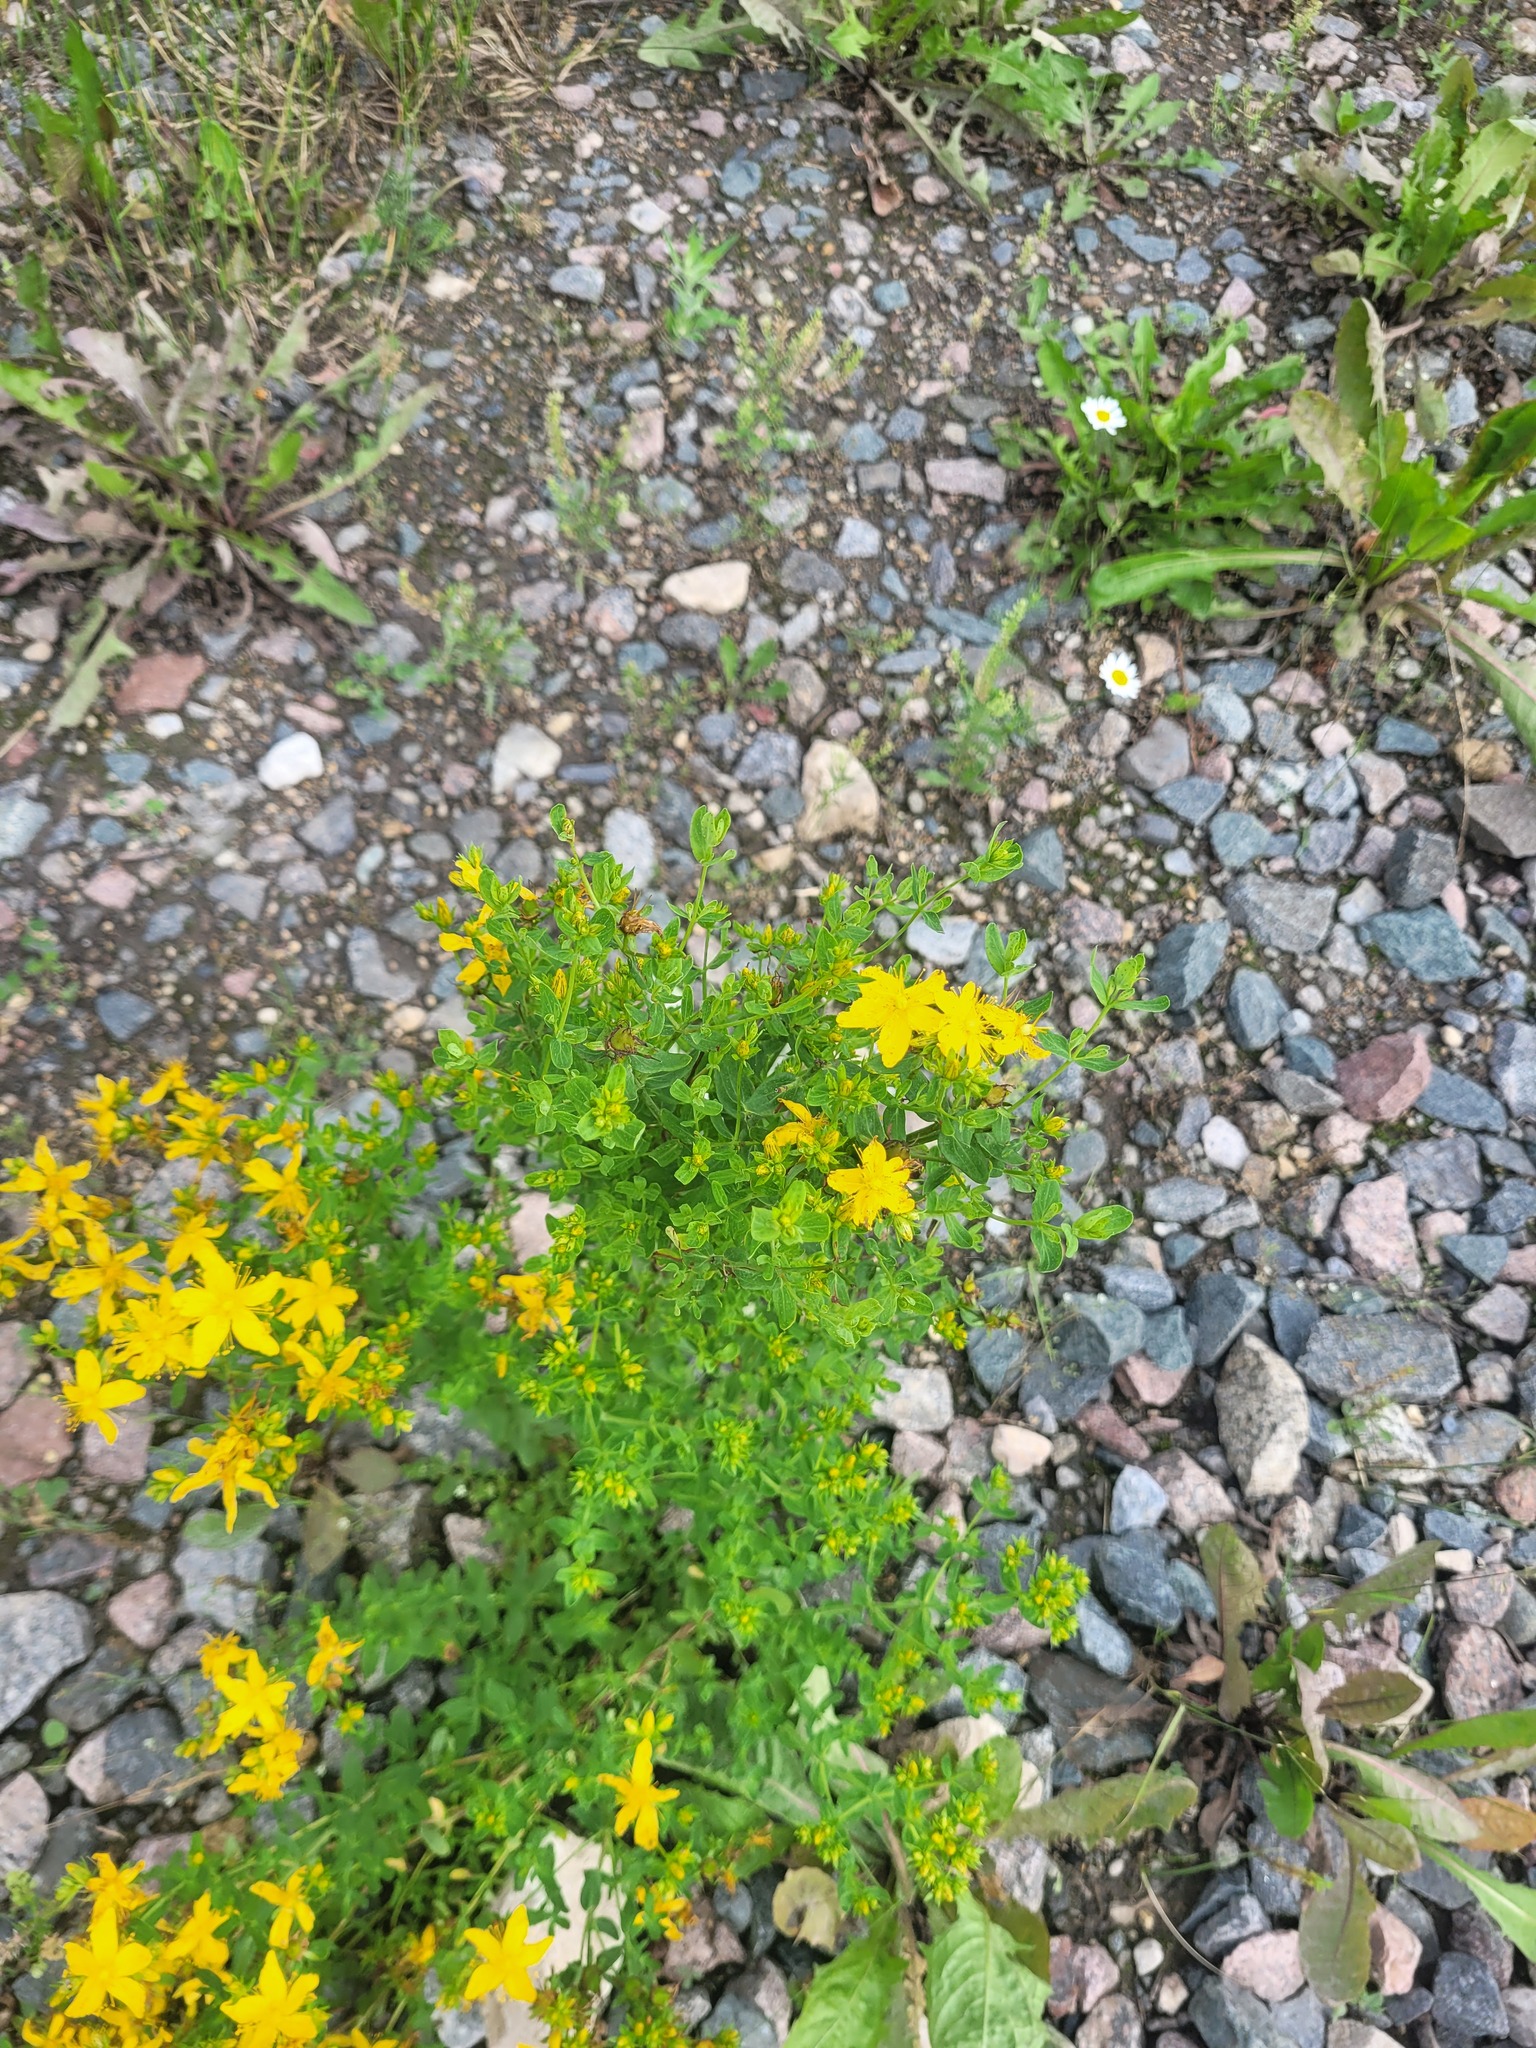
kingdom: Plantae
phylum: Tracheophyta
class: Magnoliopsida
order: Malpighiales
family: Hypericaceae
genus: Hypericum
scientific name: Hypericum perforatum
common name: Common st. johnswort
